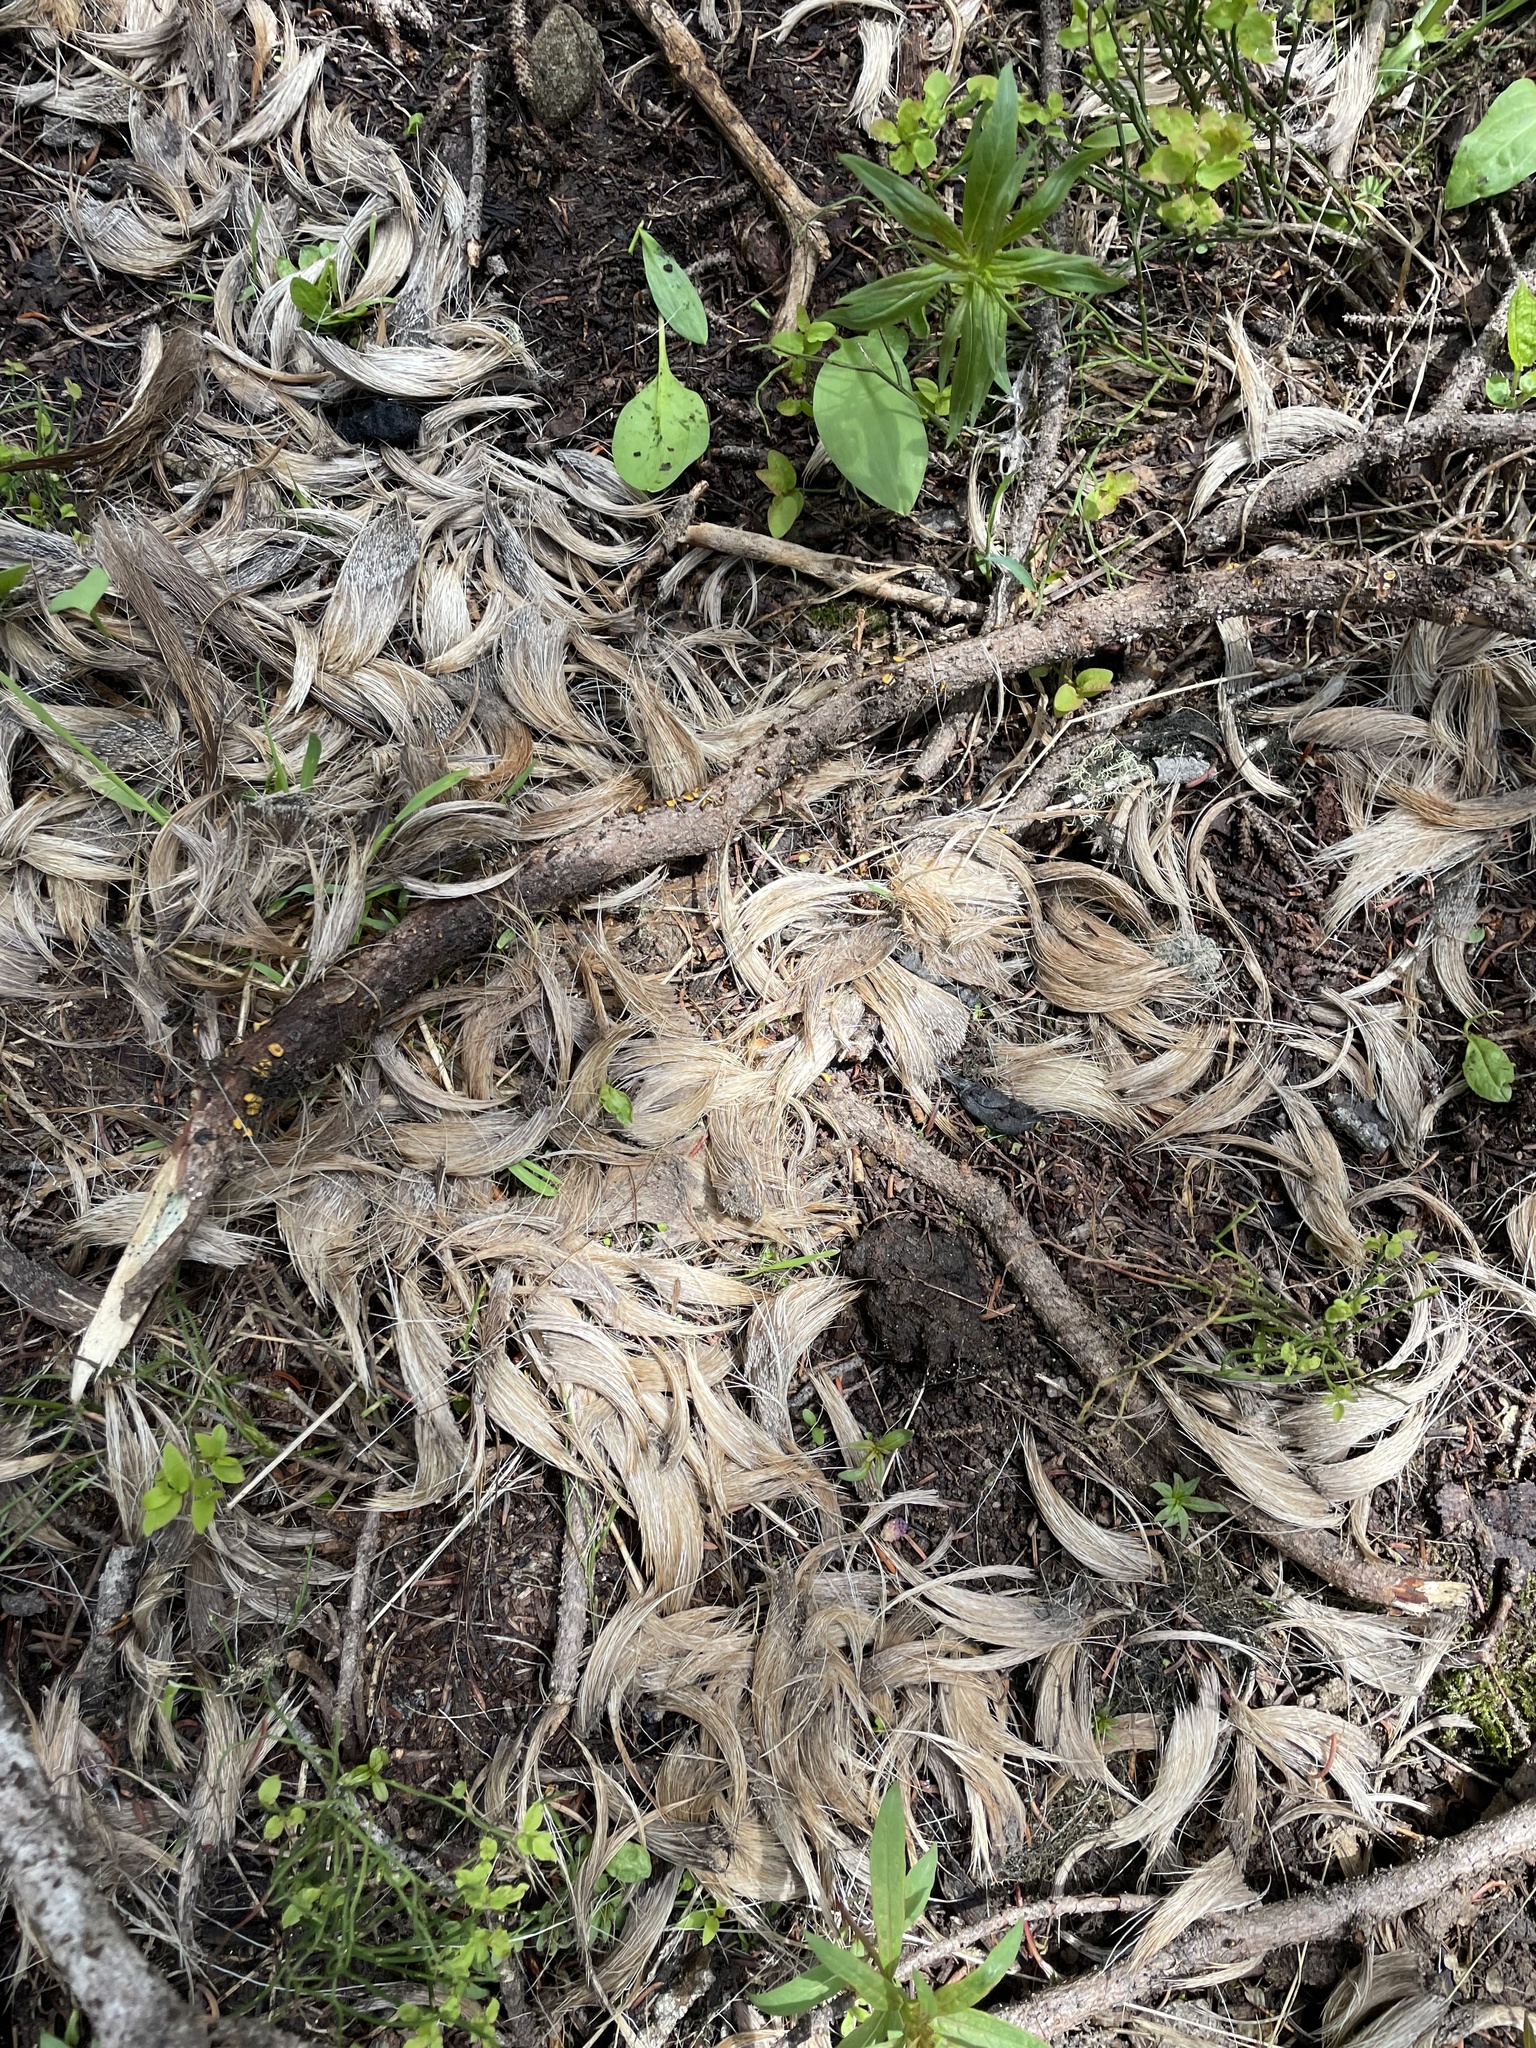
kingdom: Animalia
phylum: Chordata
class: Mammalia
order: Artiodactyla
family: Cervidae
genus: Cervus
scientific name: Cervus elaphus
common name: Red deer
